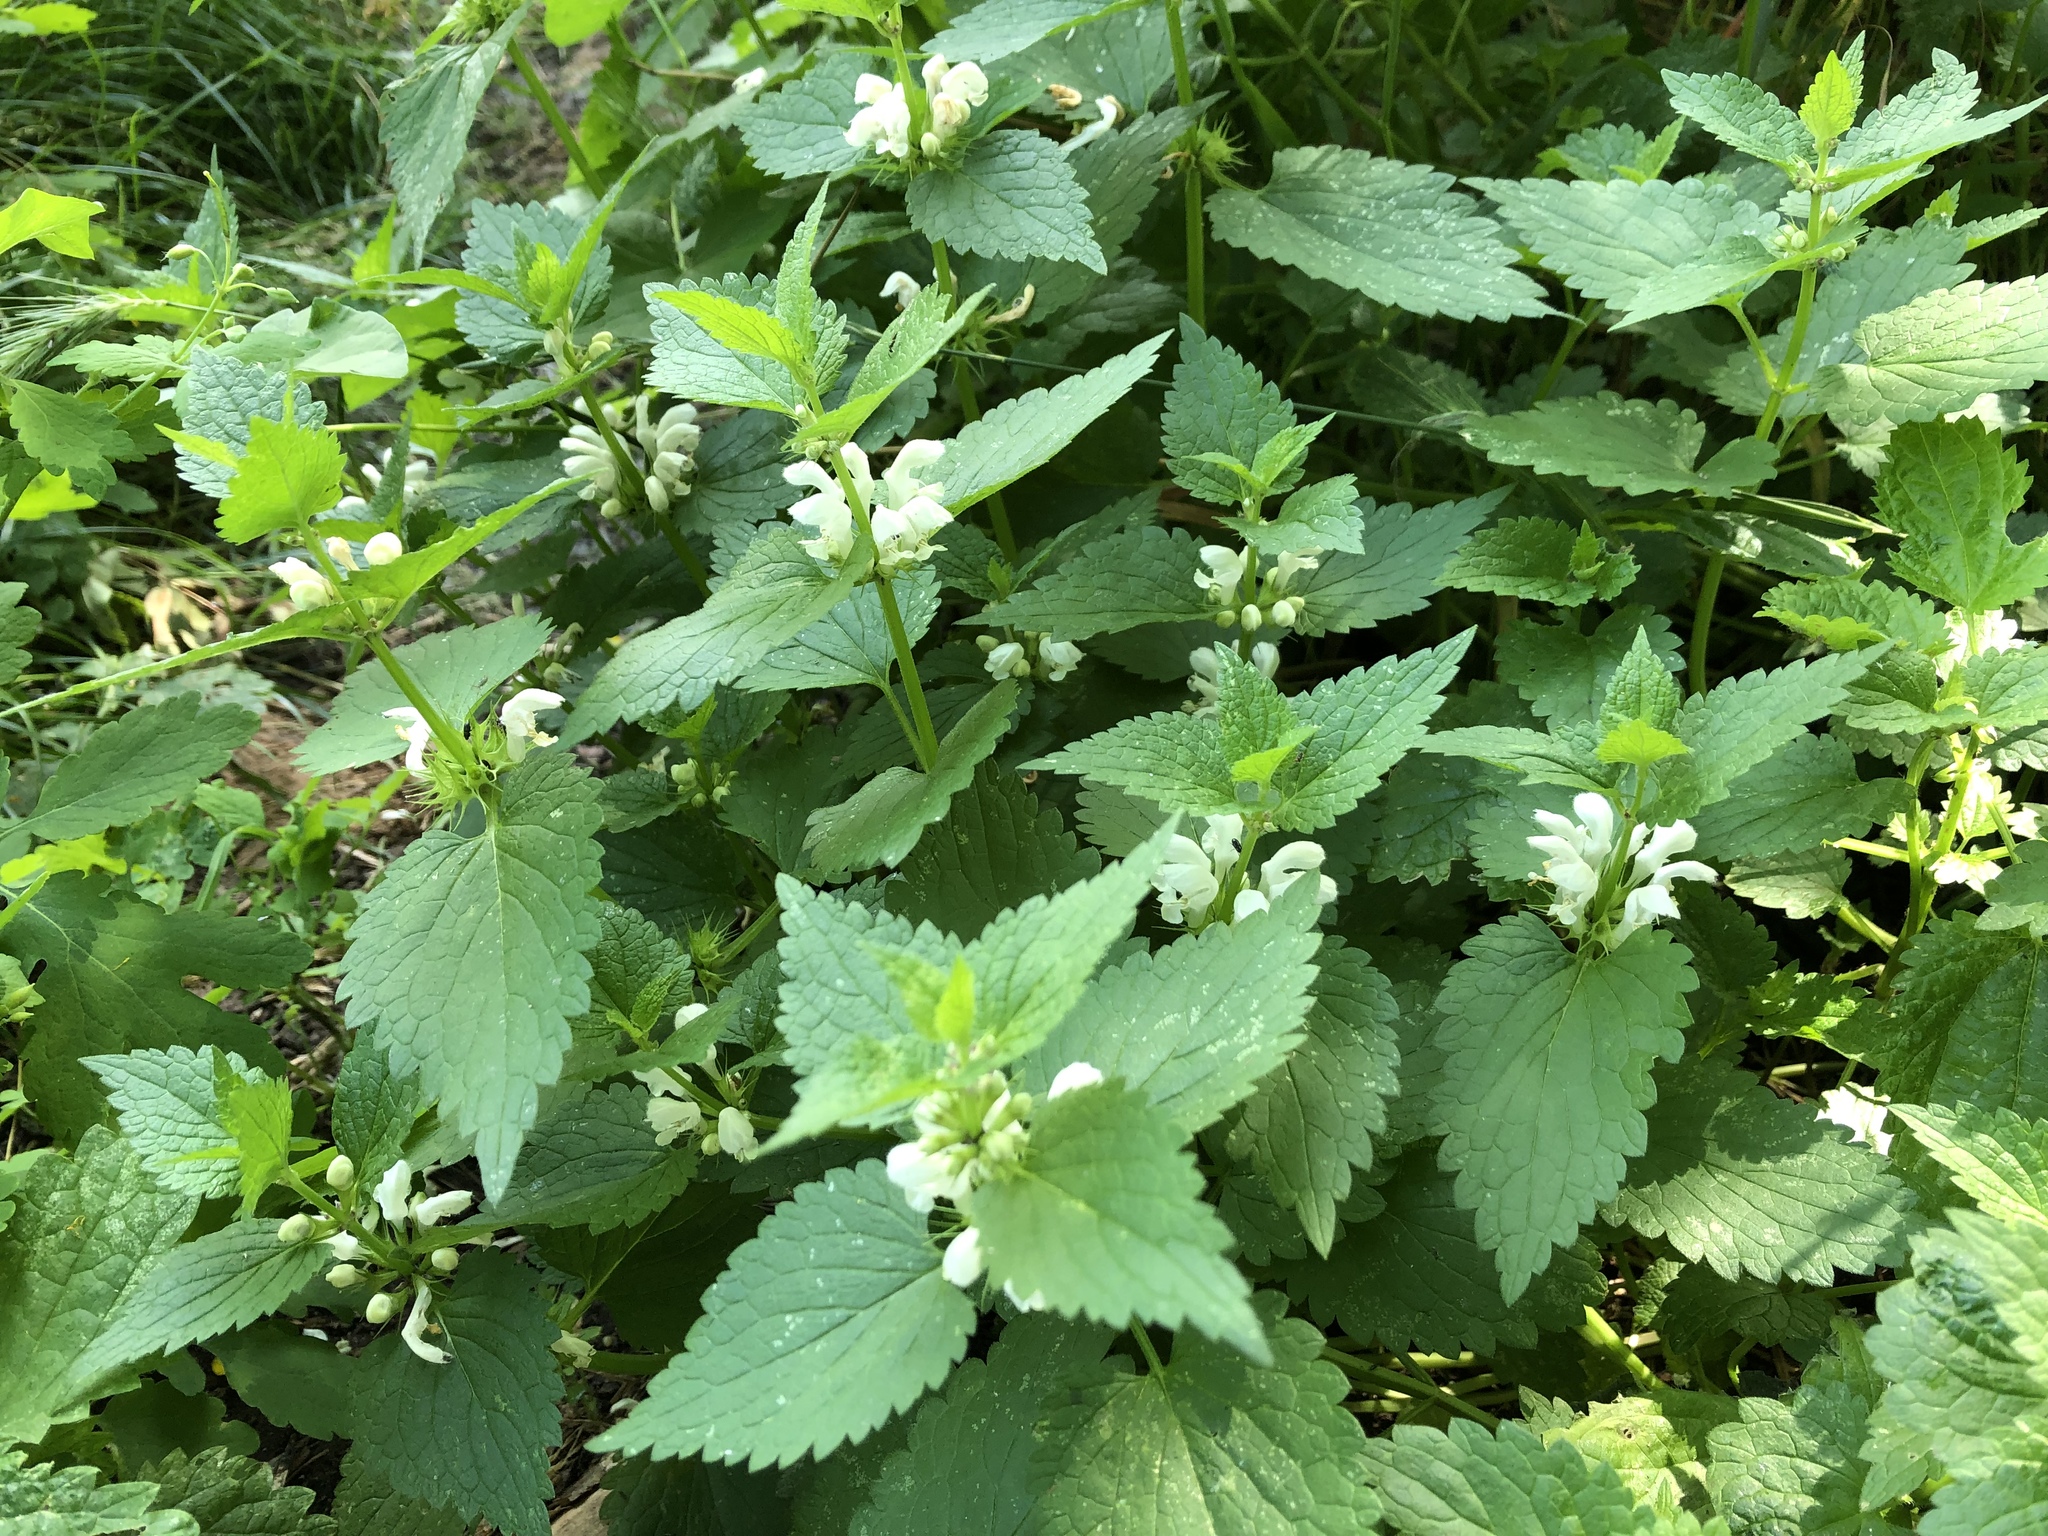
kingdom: Plantae
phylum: Tracheophyta
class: Magnoliopsida
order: Lamiales
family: Lamiaceae
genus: Lamium
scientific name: Lamium album
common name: White dead-nettle
